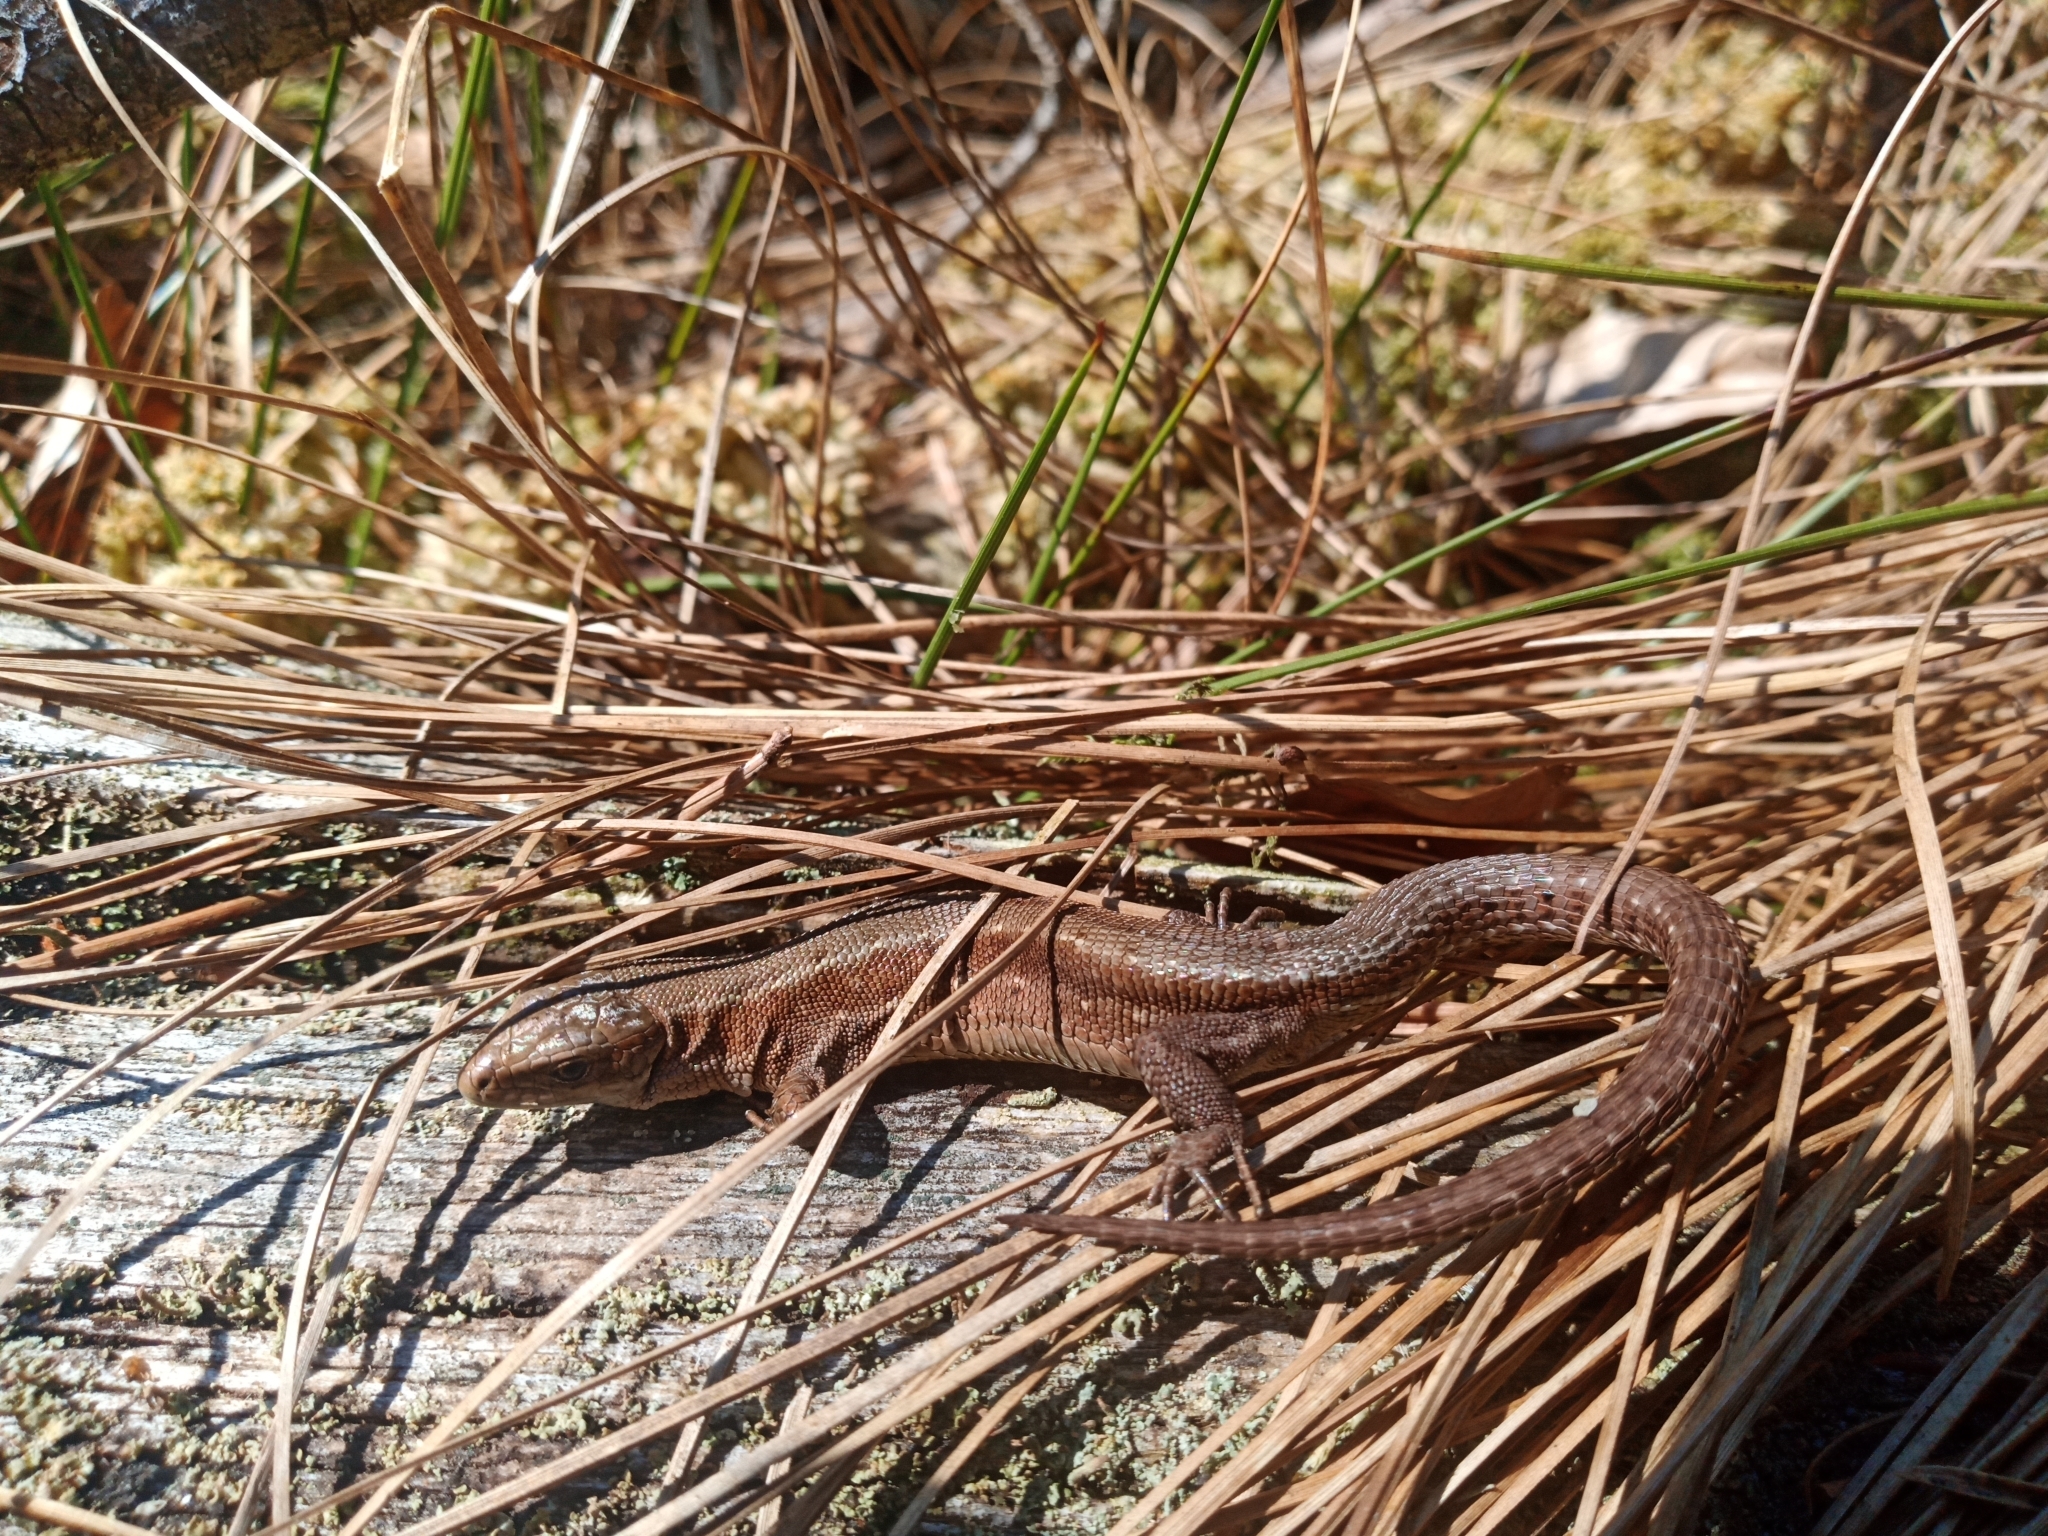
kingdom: Animalia
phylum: Chordata
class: Squamata
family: Lacertidae
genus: Zootoca
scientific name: Zootoca vivipara
